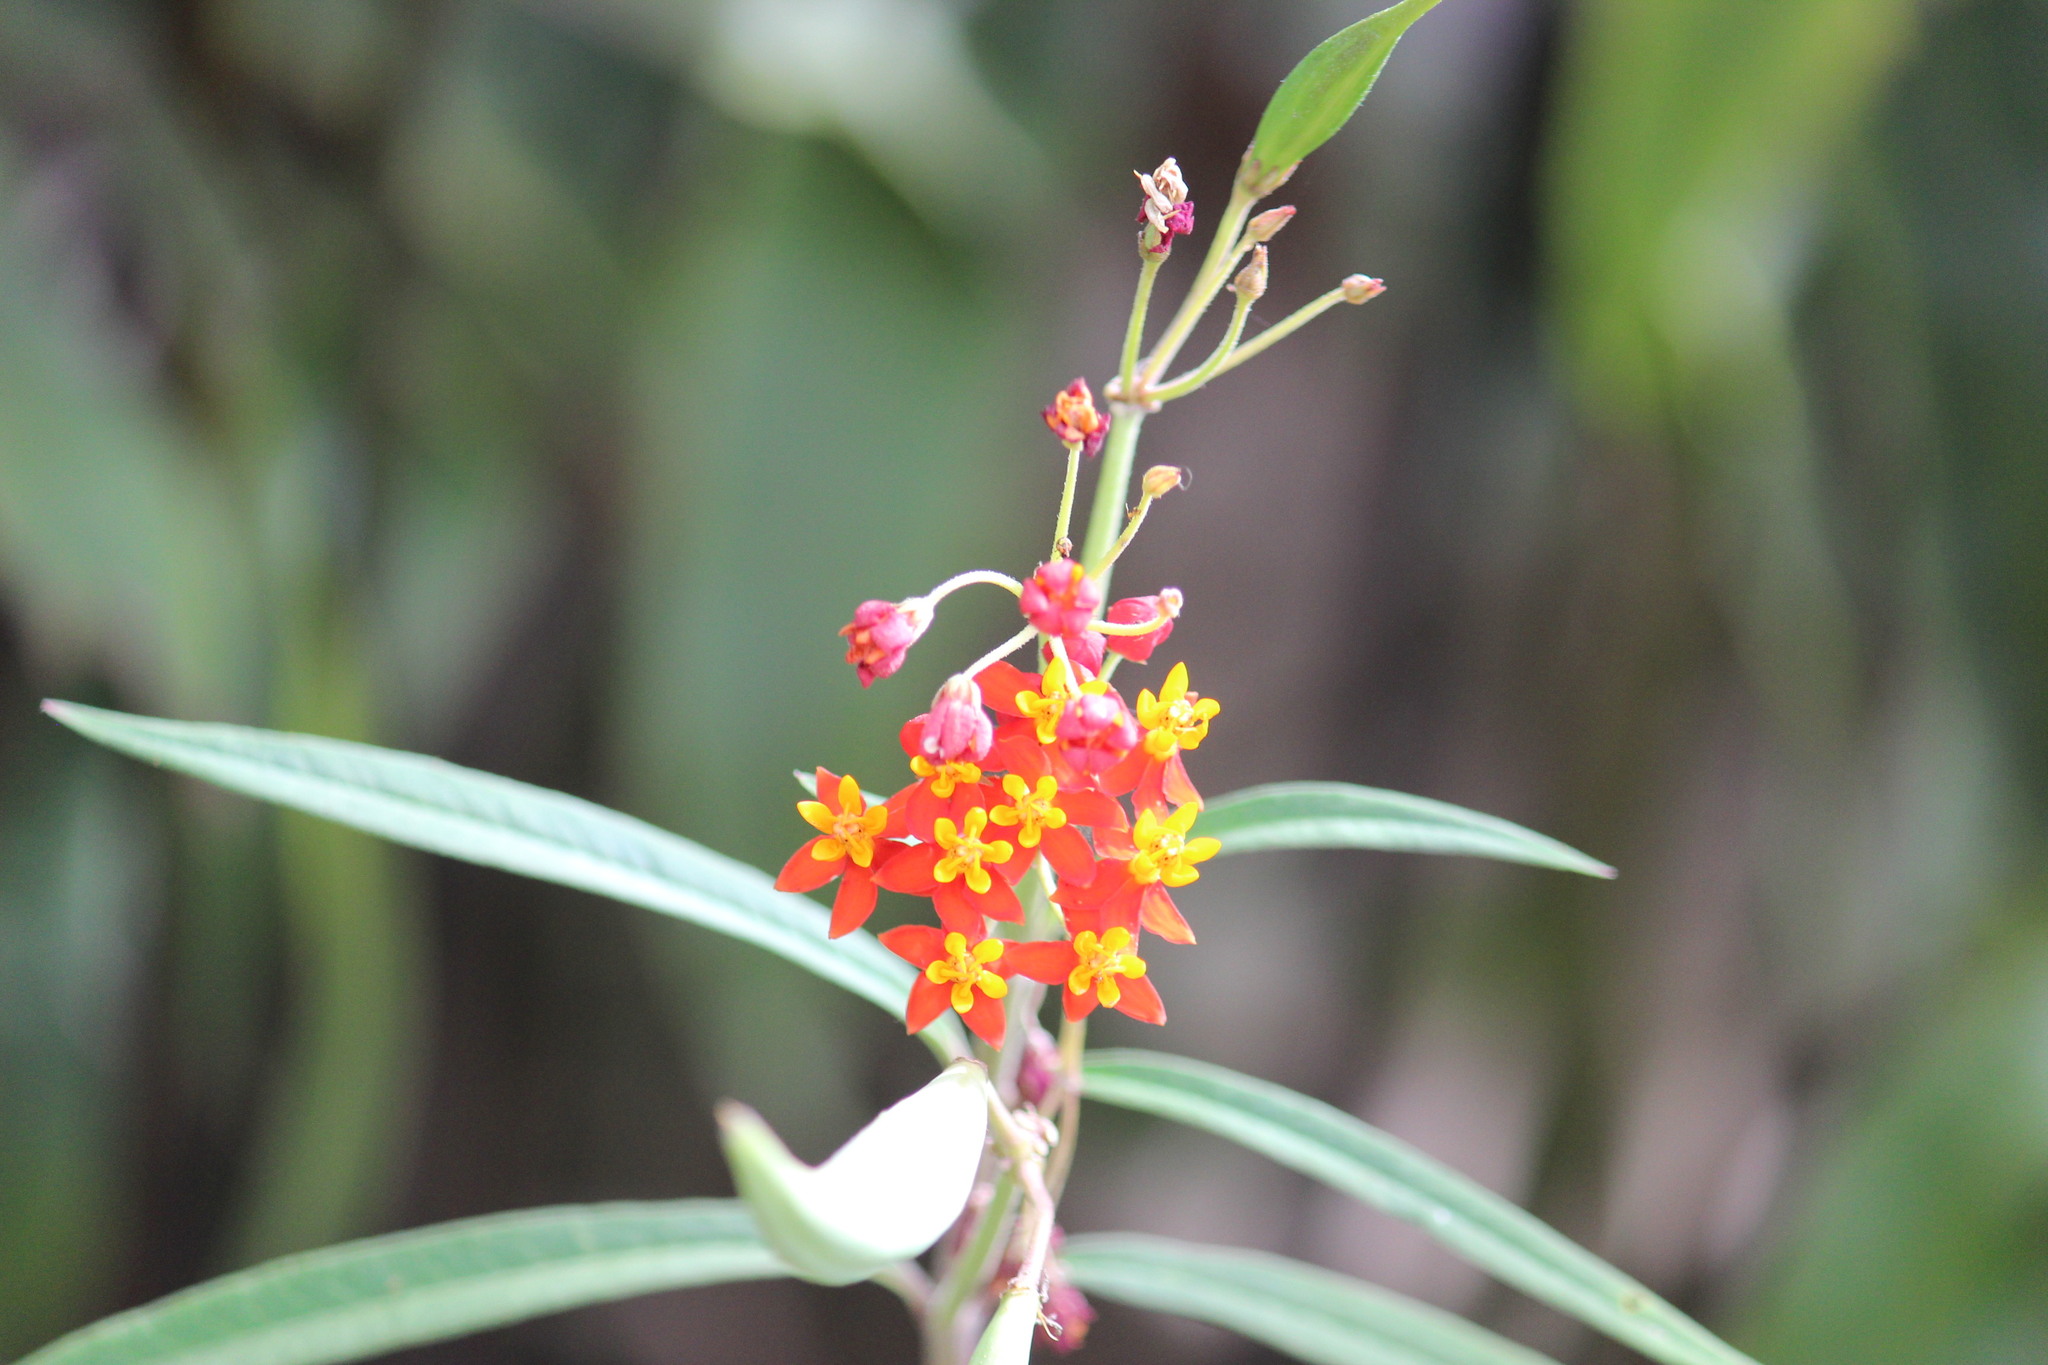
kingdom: Plantae
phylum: Tracheophyta
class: Magnoliopsida
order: Gentianales
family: Apocynaceae
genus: Asclepias
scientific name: Asclepias curassavica
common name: Bloodflower
